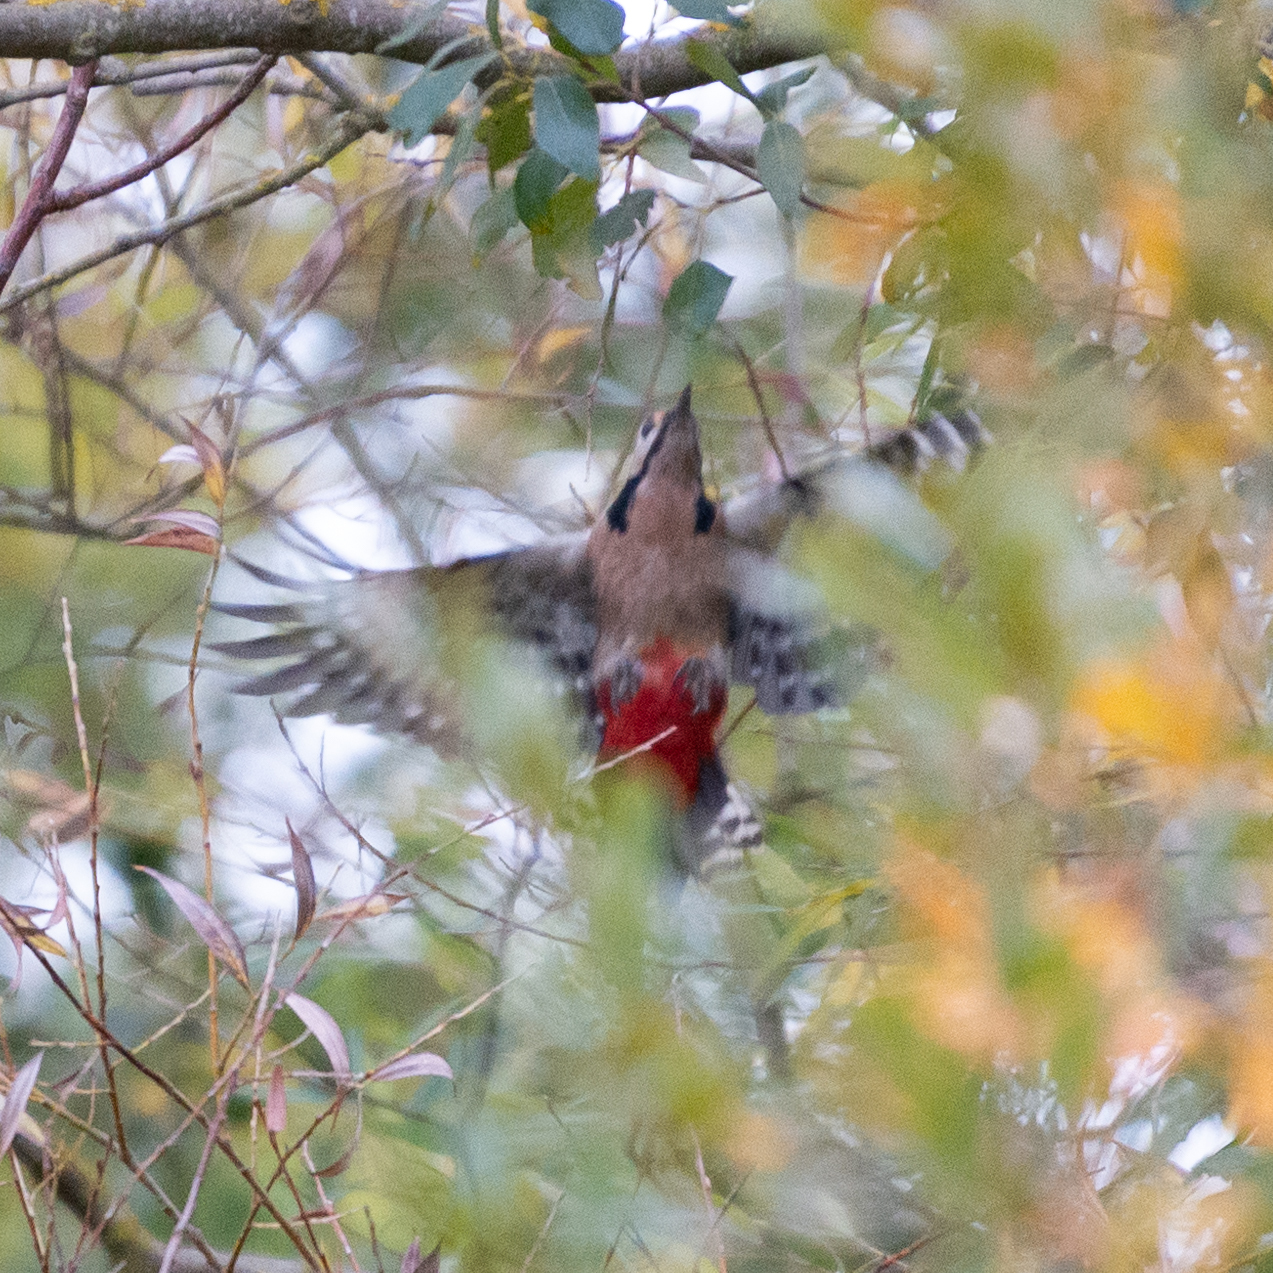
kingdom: Animalia
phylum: Chordata
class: Aves
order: Piciformes
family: Picidae
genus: Dendrocopos
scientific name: Dendrocopos major
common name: Great spotted woodpecker
